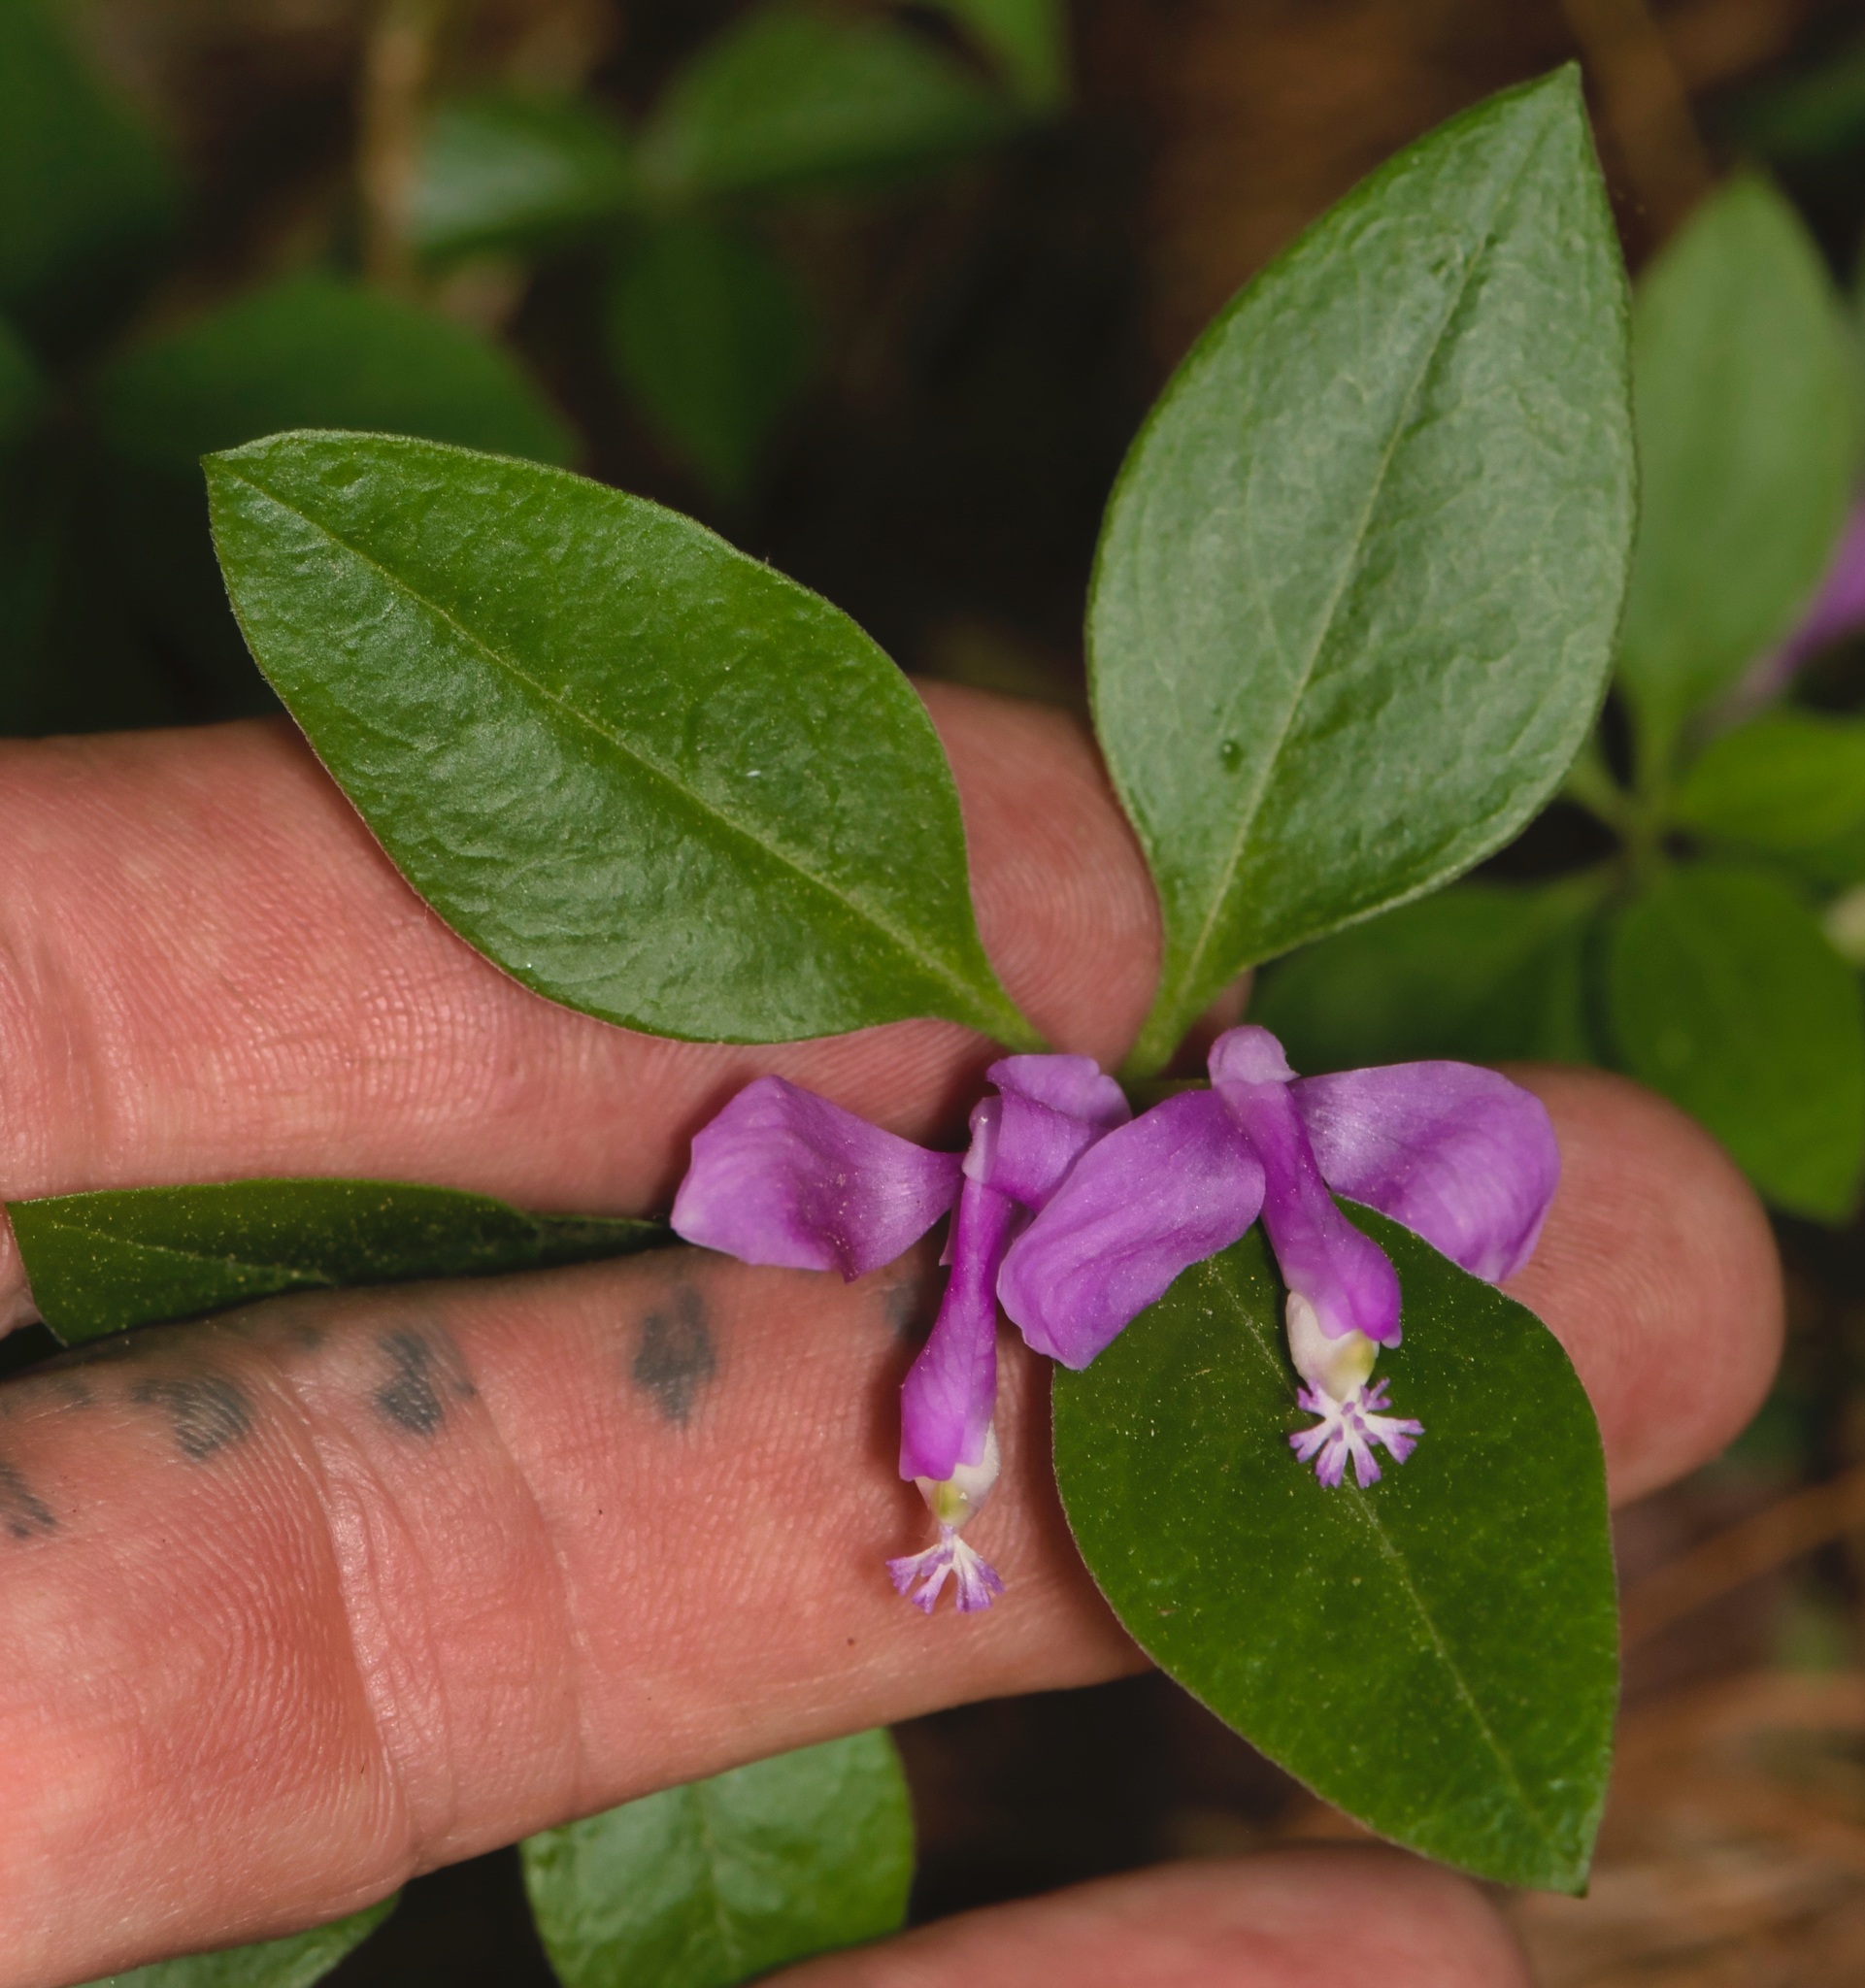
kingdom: Plantae
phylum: Tracheophyta
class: Magnoliopsida
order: Fabales
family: Polygalaceae
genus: Polygaloides
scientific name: Polygaloides paucifolia
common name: Bird-on-the-wing
